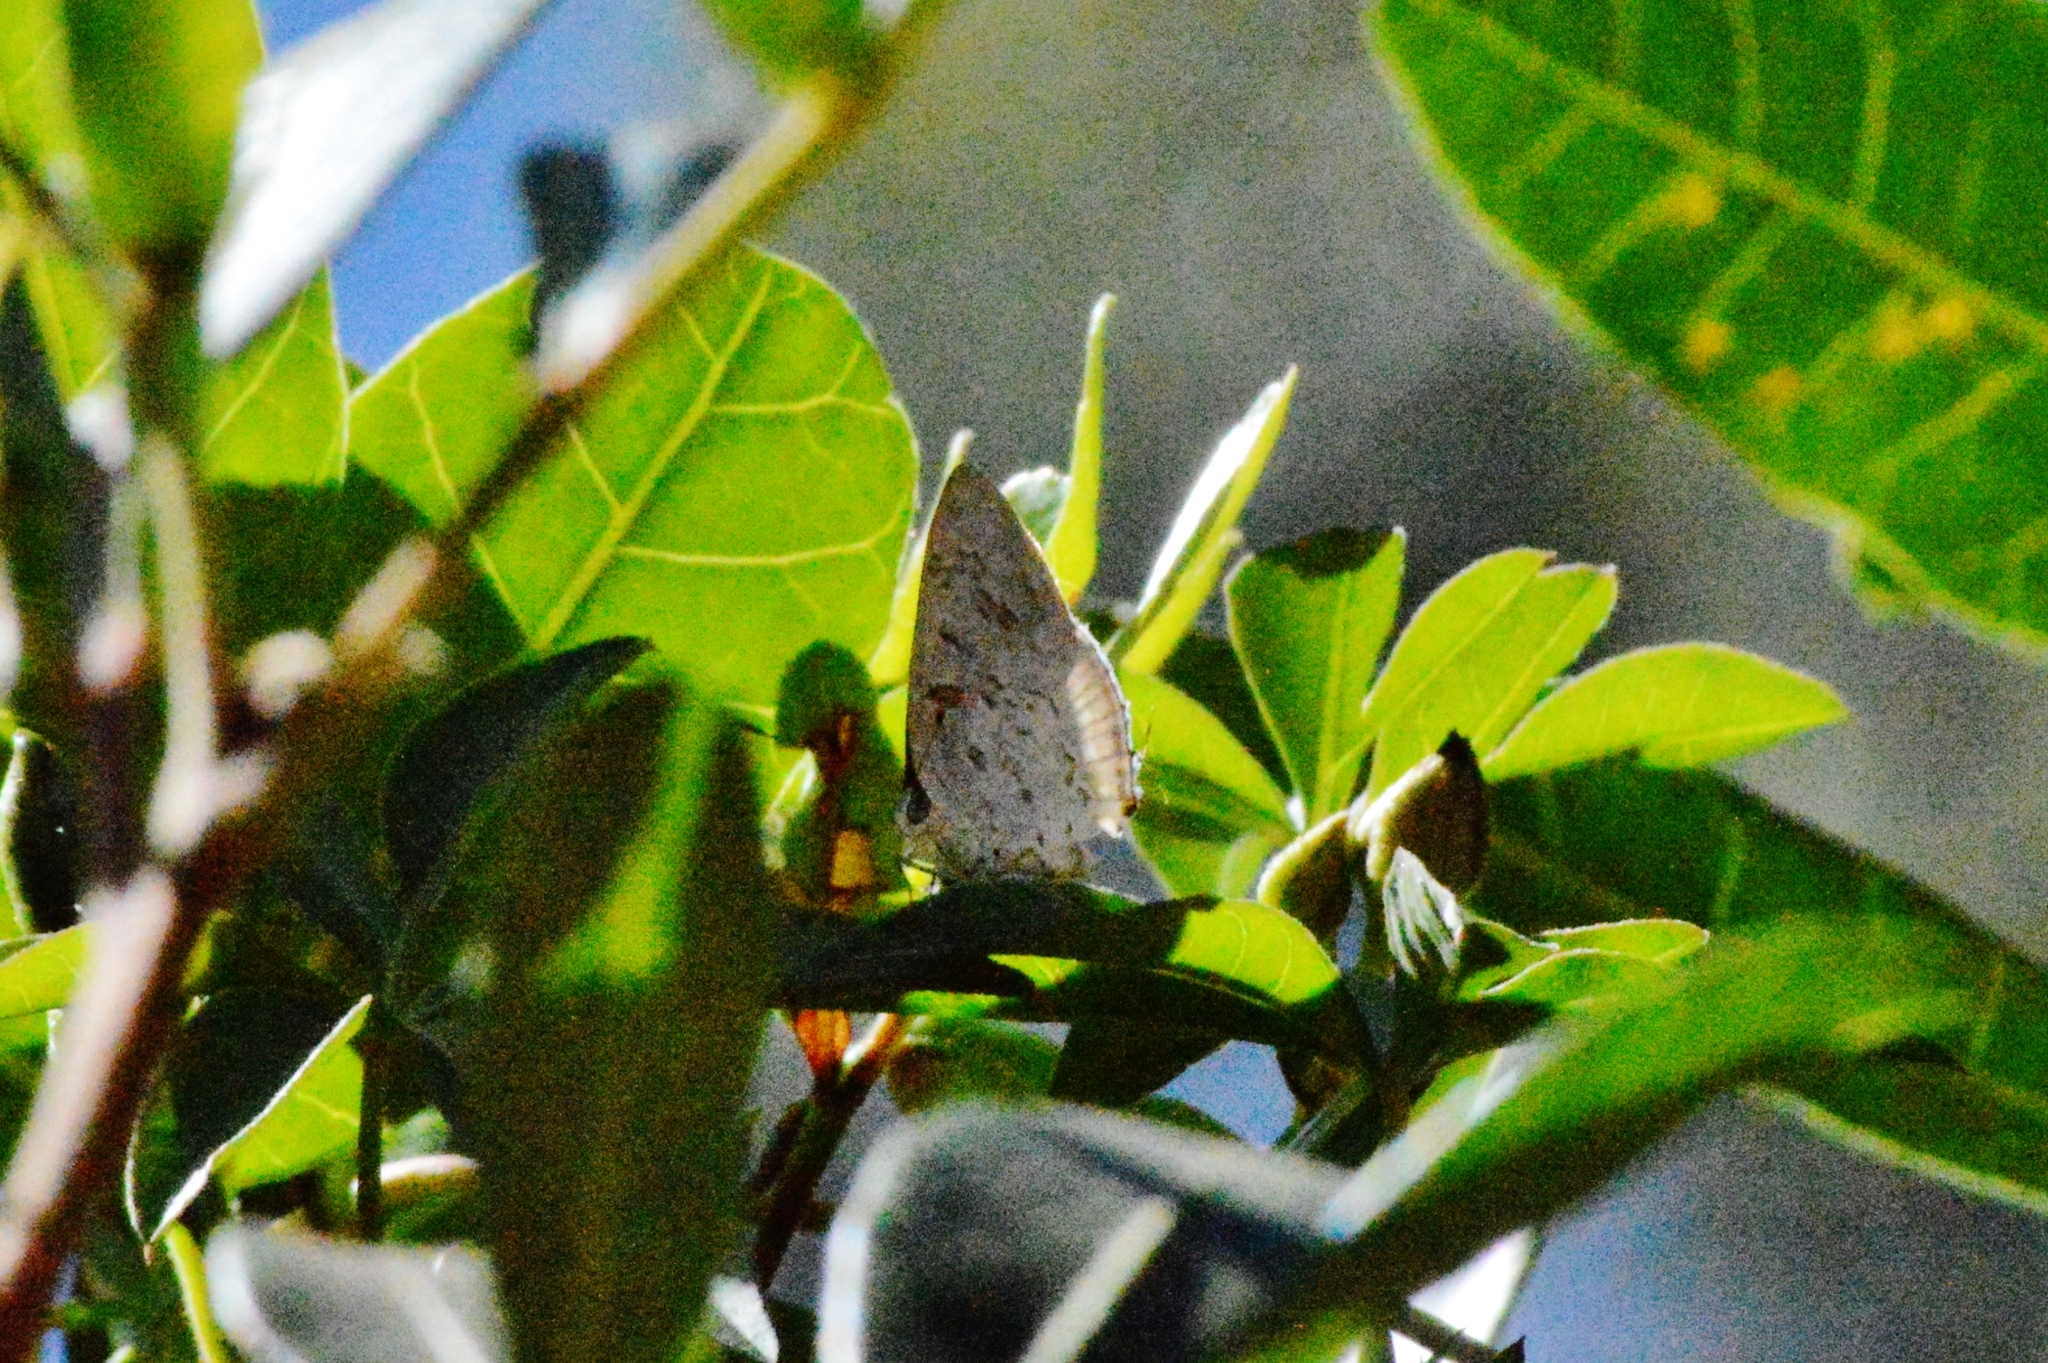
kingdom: Animalia
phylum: Arthropoda
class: Insecta
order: Lepidoptera
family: Lycaenidae
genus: Thecla
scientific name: Thecla una
